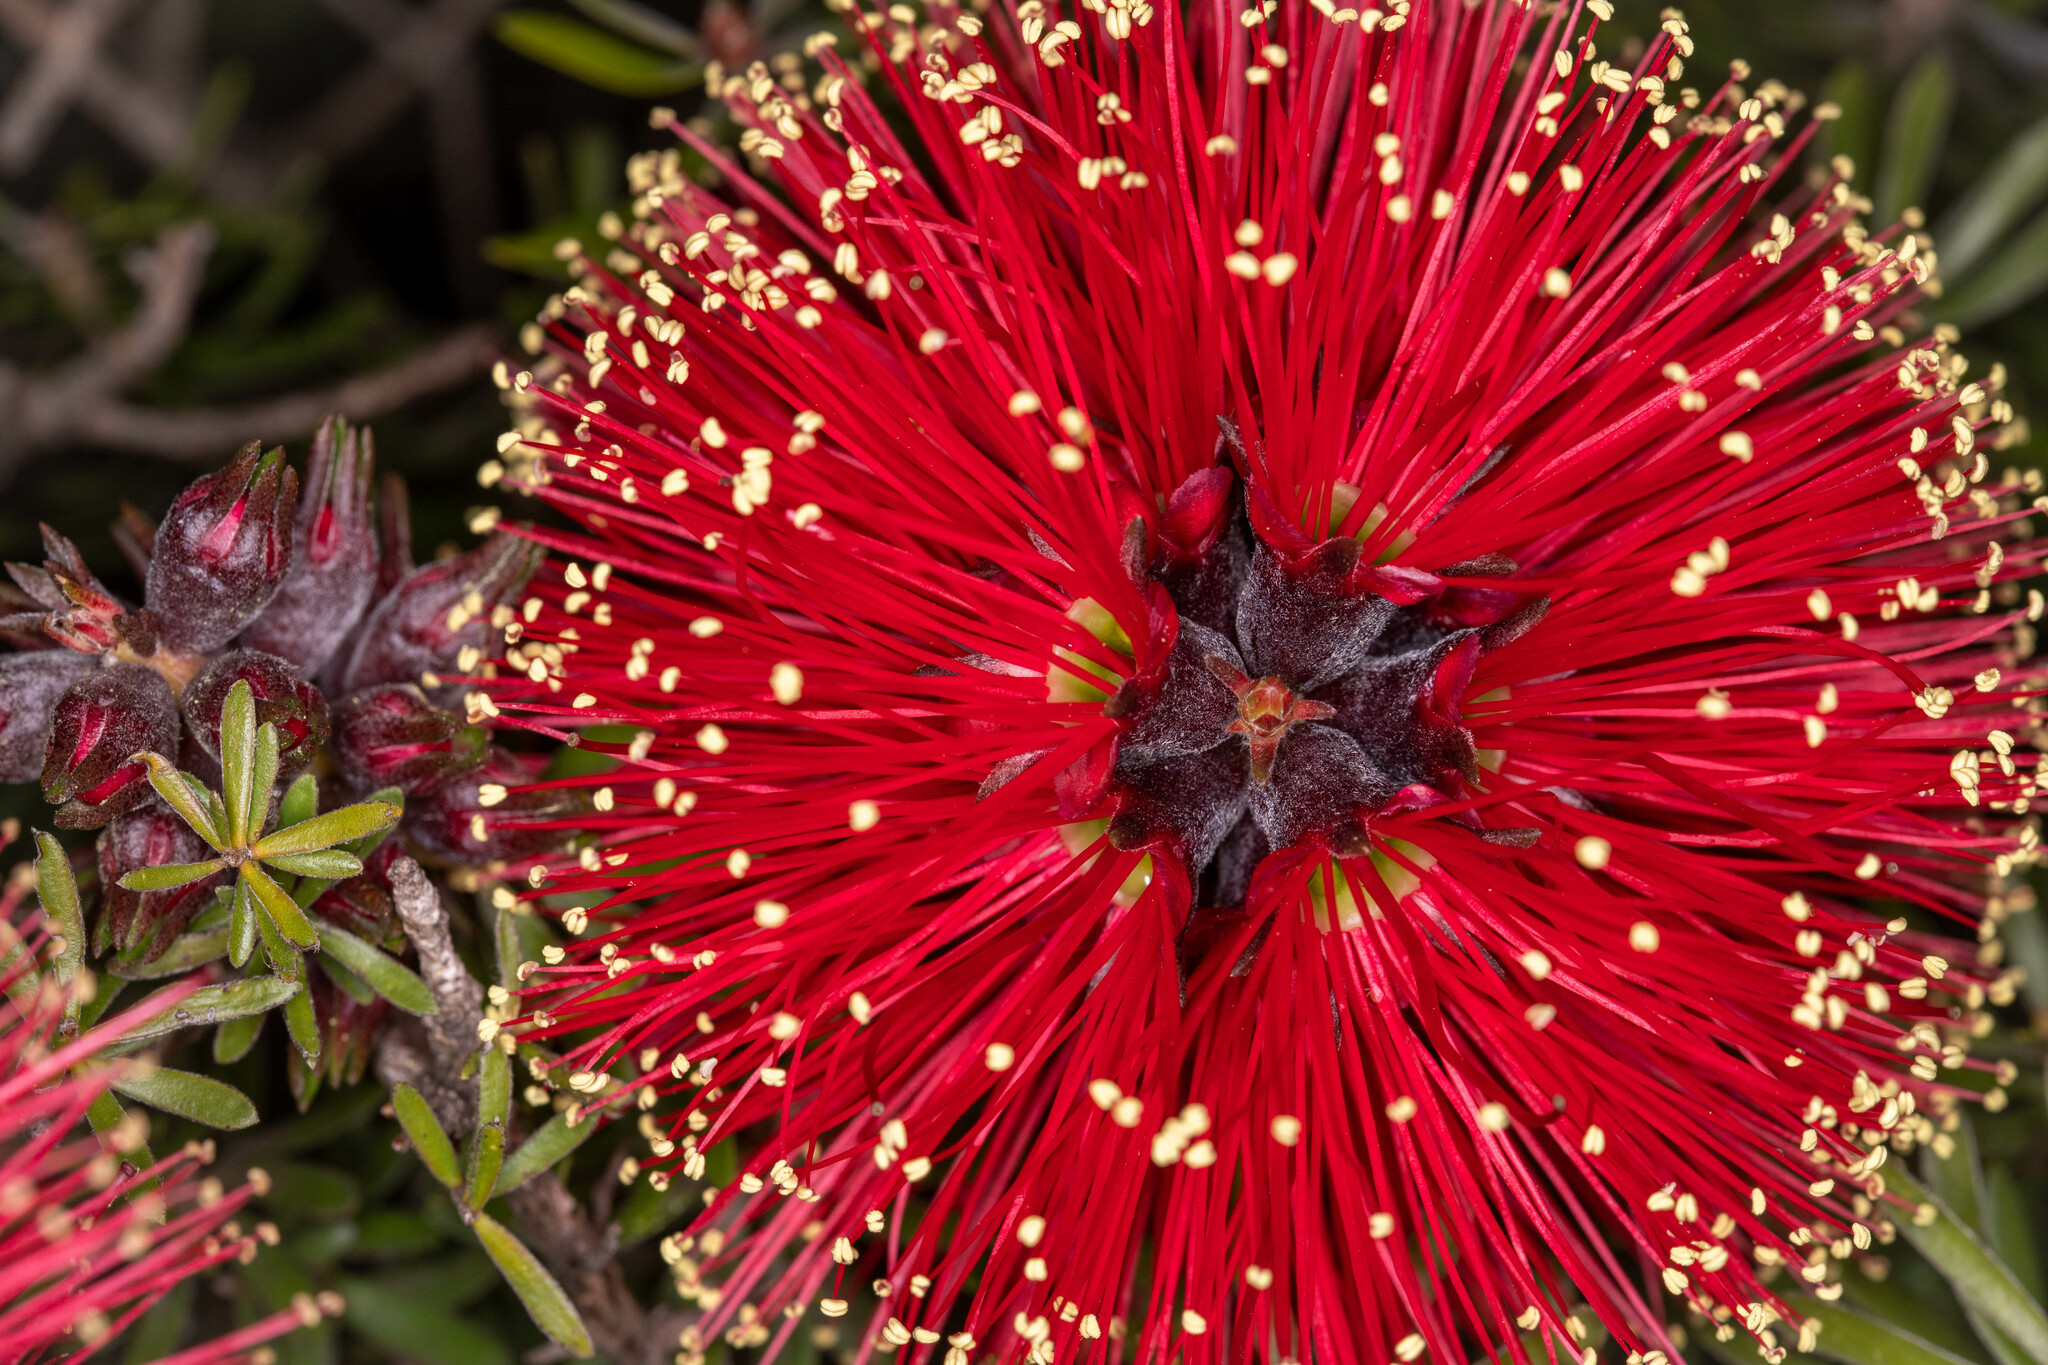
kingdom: Plantae
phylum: Tracheophyta
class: Magnoliopsida
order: Myrtales
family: Myrtaceae
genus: Kunzea
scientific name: Kunzea baxteri
